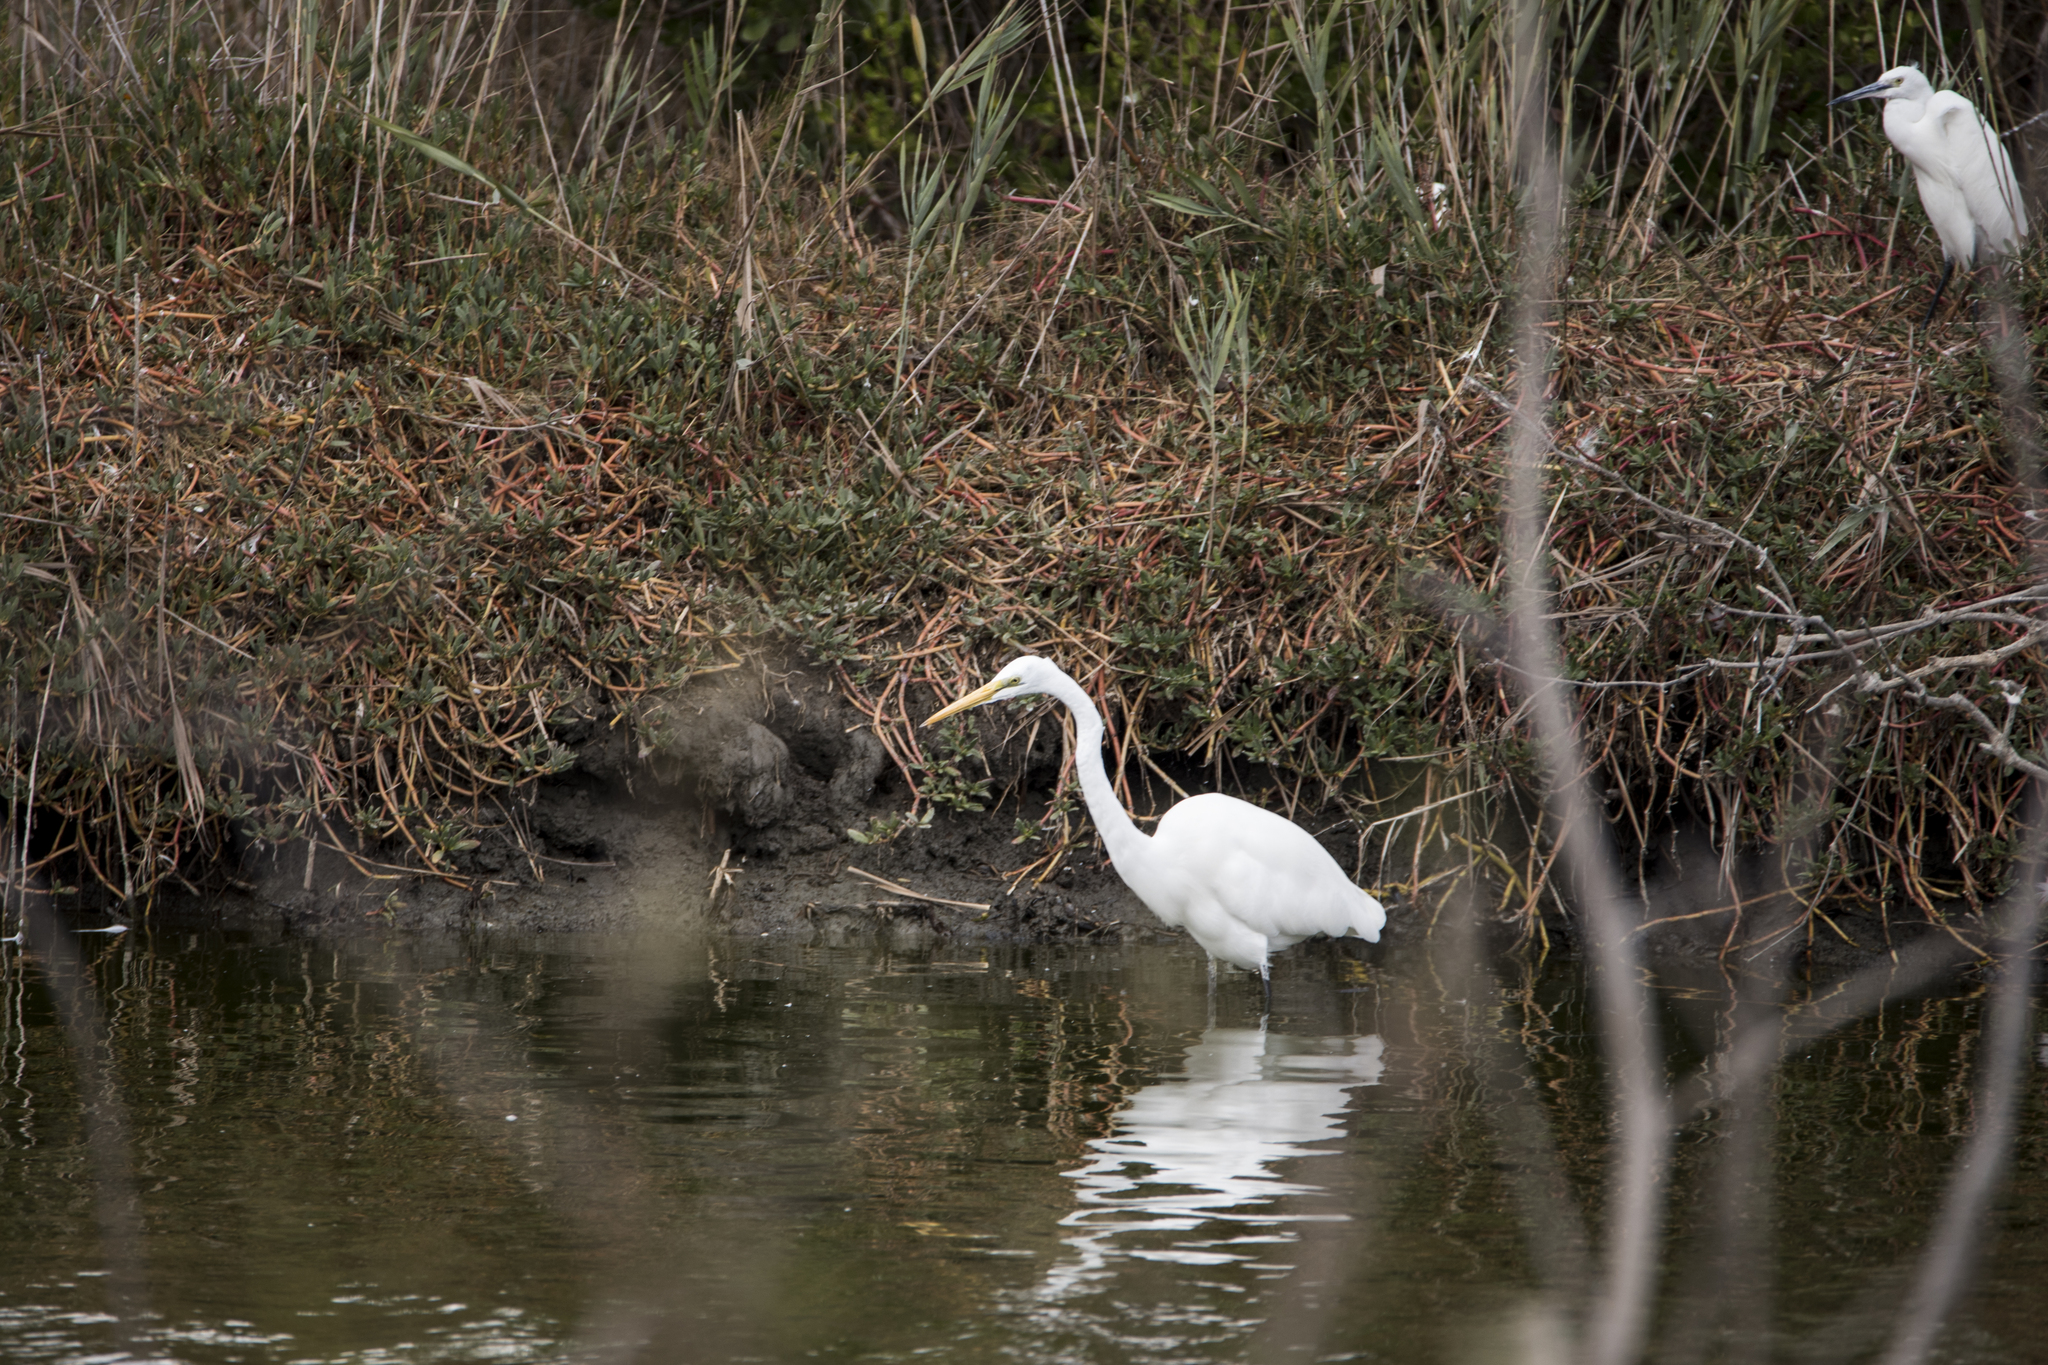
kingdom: Animalia
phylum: Chordata
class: Aves
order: Pelecaniformes
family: Ardeidae
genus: Ardea
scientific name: Ardea modesta
